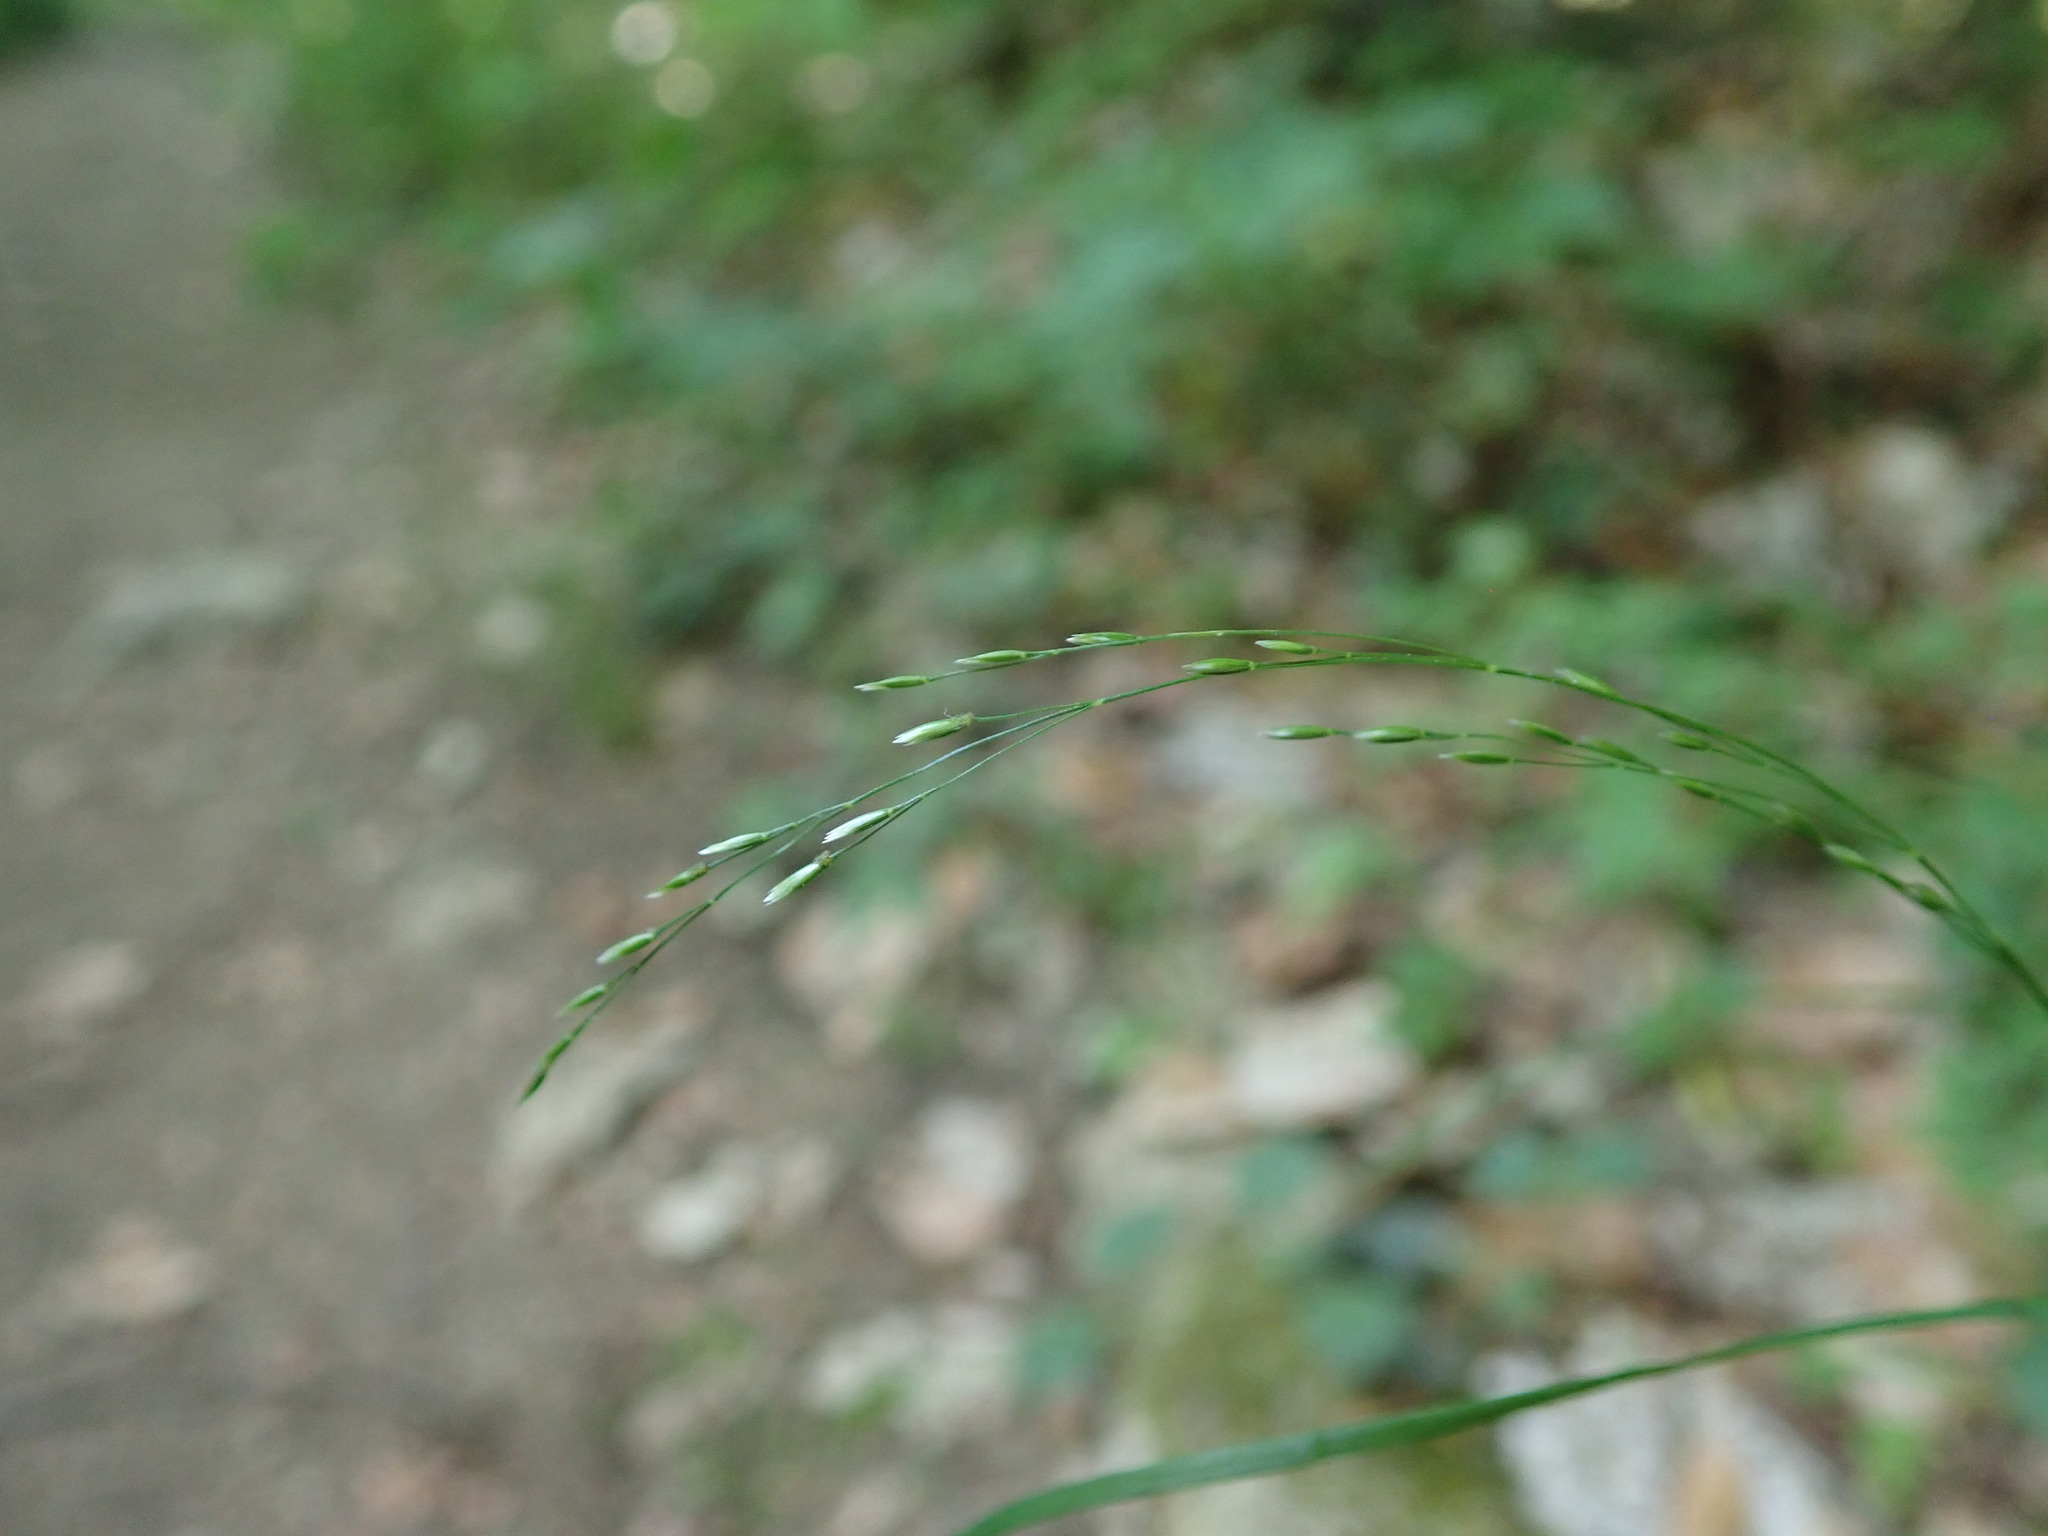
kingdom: Plantae
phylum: Tracheophyta
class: Liliopsida
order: Poales
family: Poaceae
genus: Poa
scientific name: Poa nemoralis
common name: Wood bluegrass
